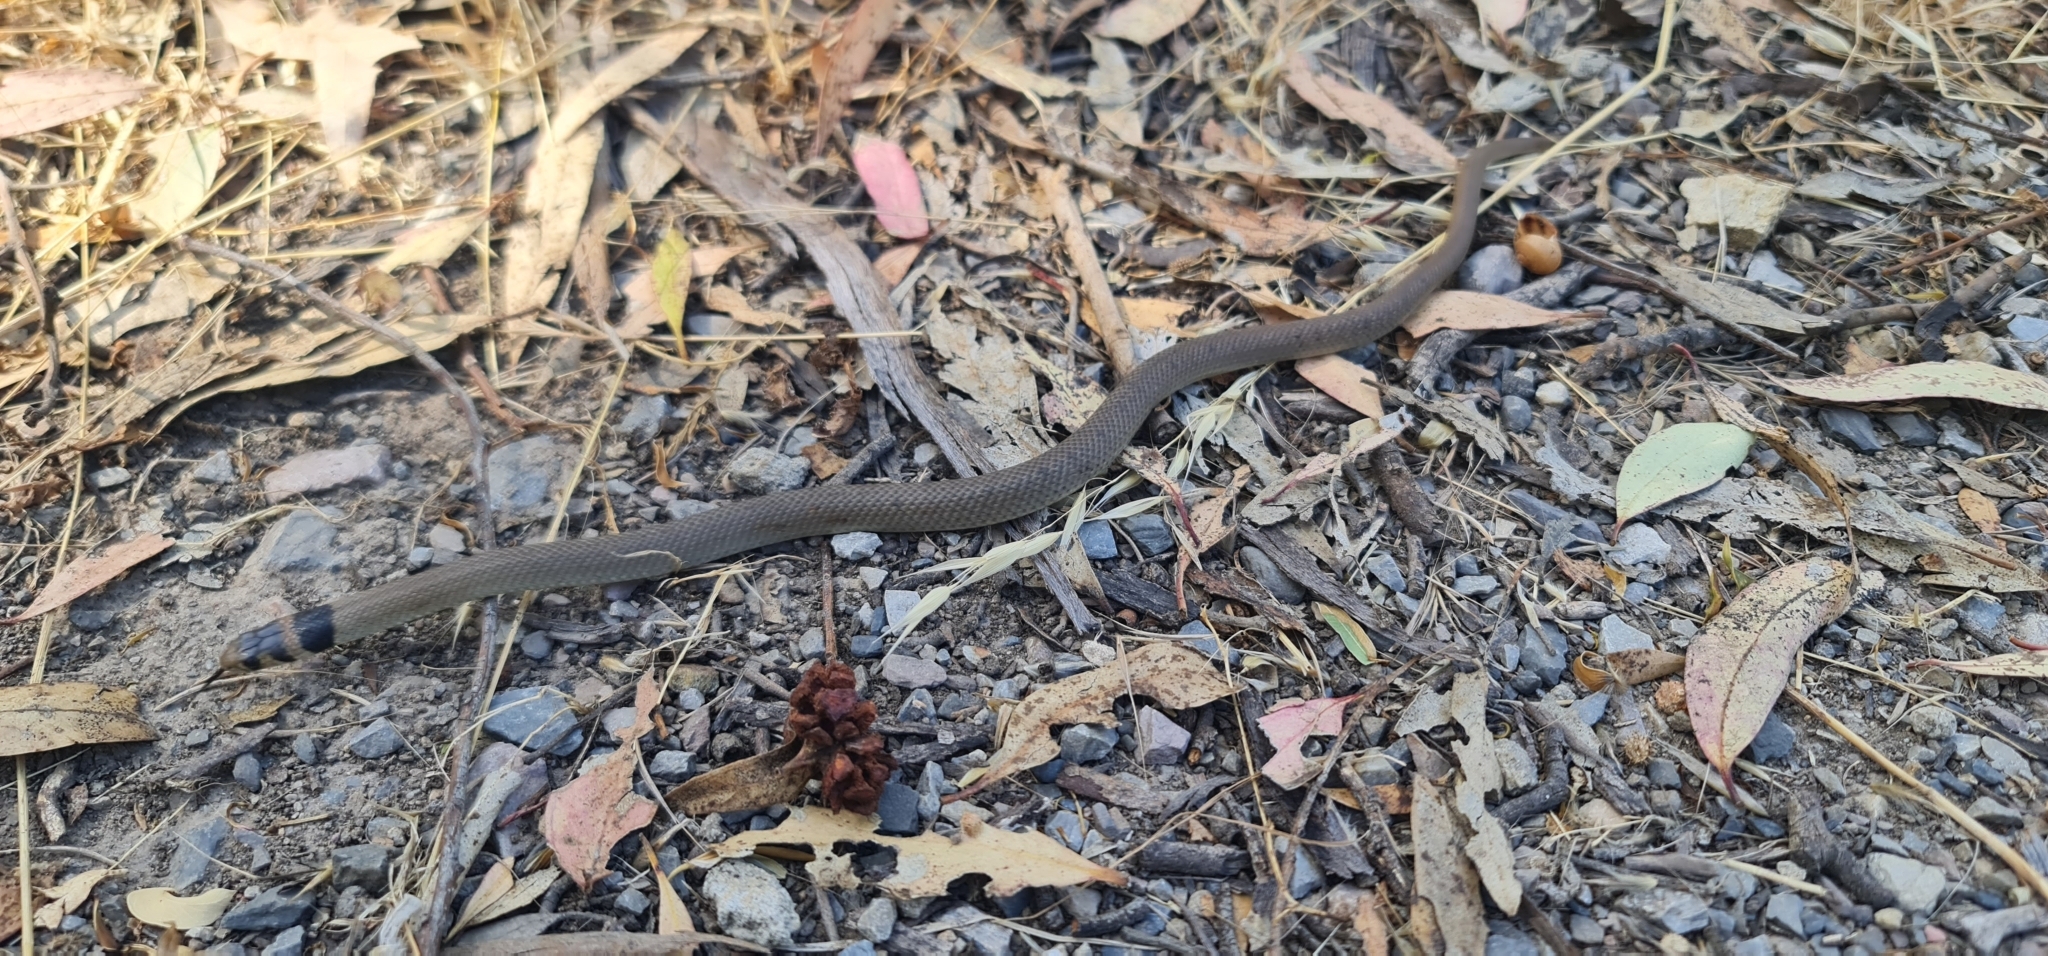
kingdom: Animalia
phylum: Chordata
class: Squamata
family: Elapidae
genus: Pseudonaja
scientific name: Pseudonaja textilis
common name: Eastern brown snake
